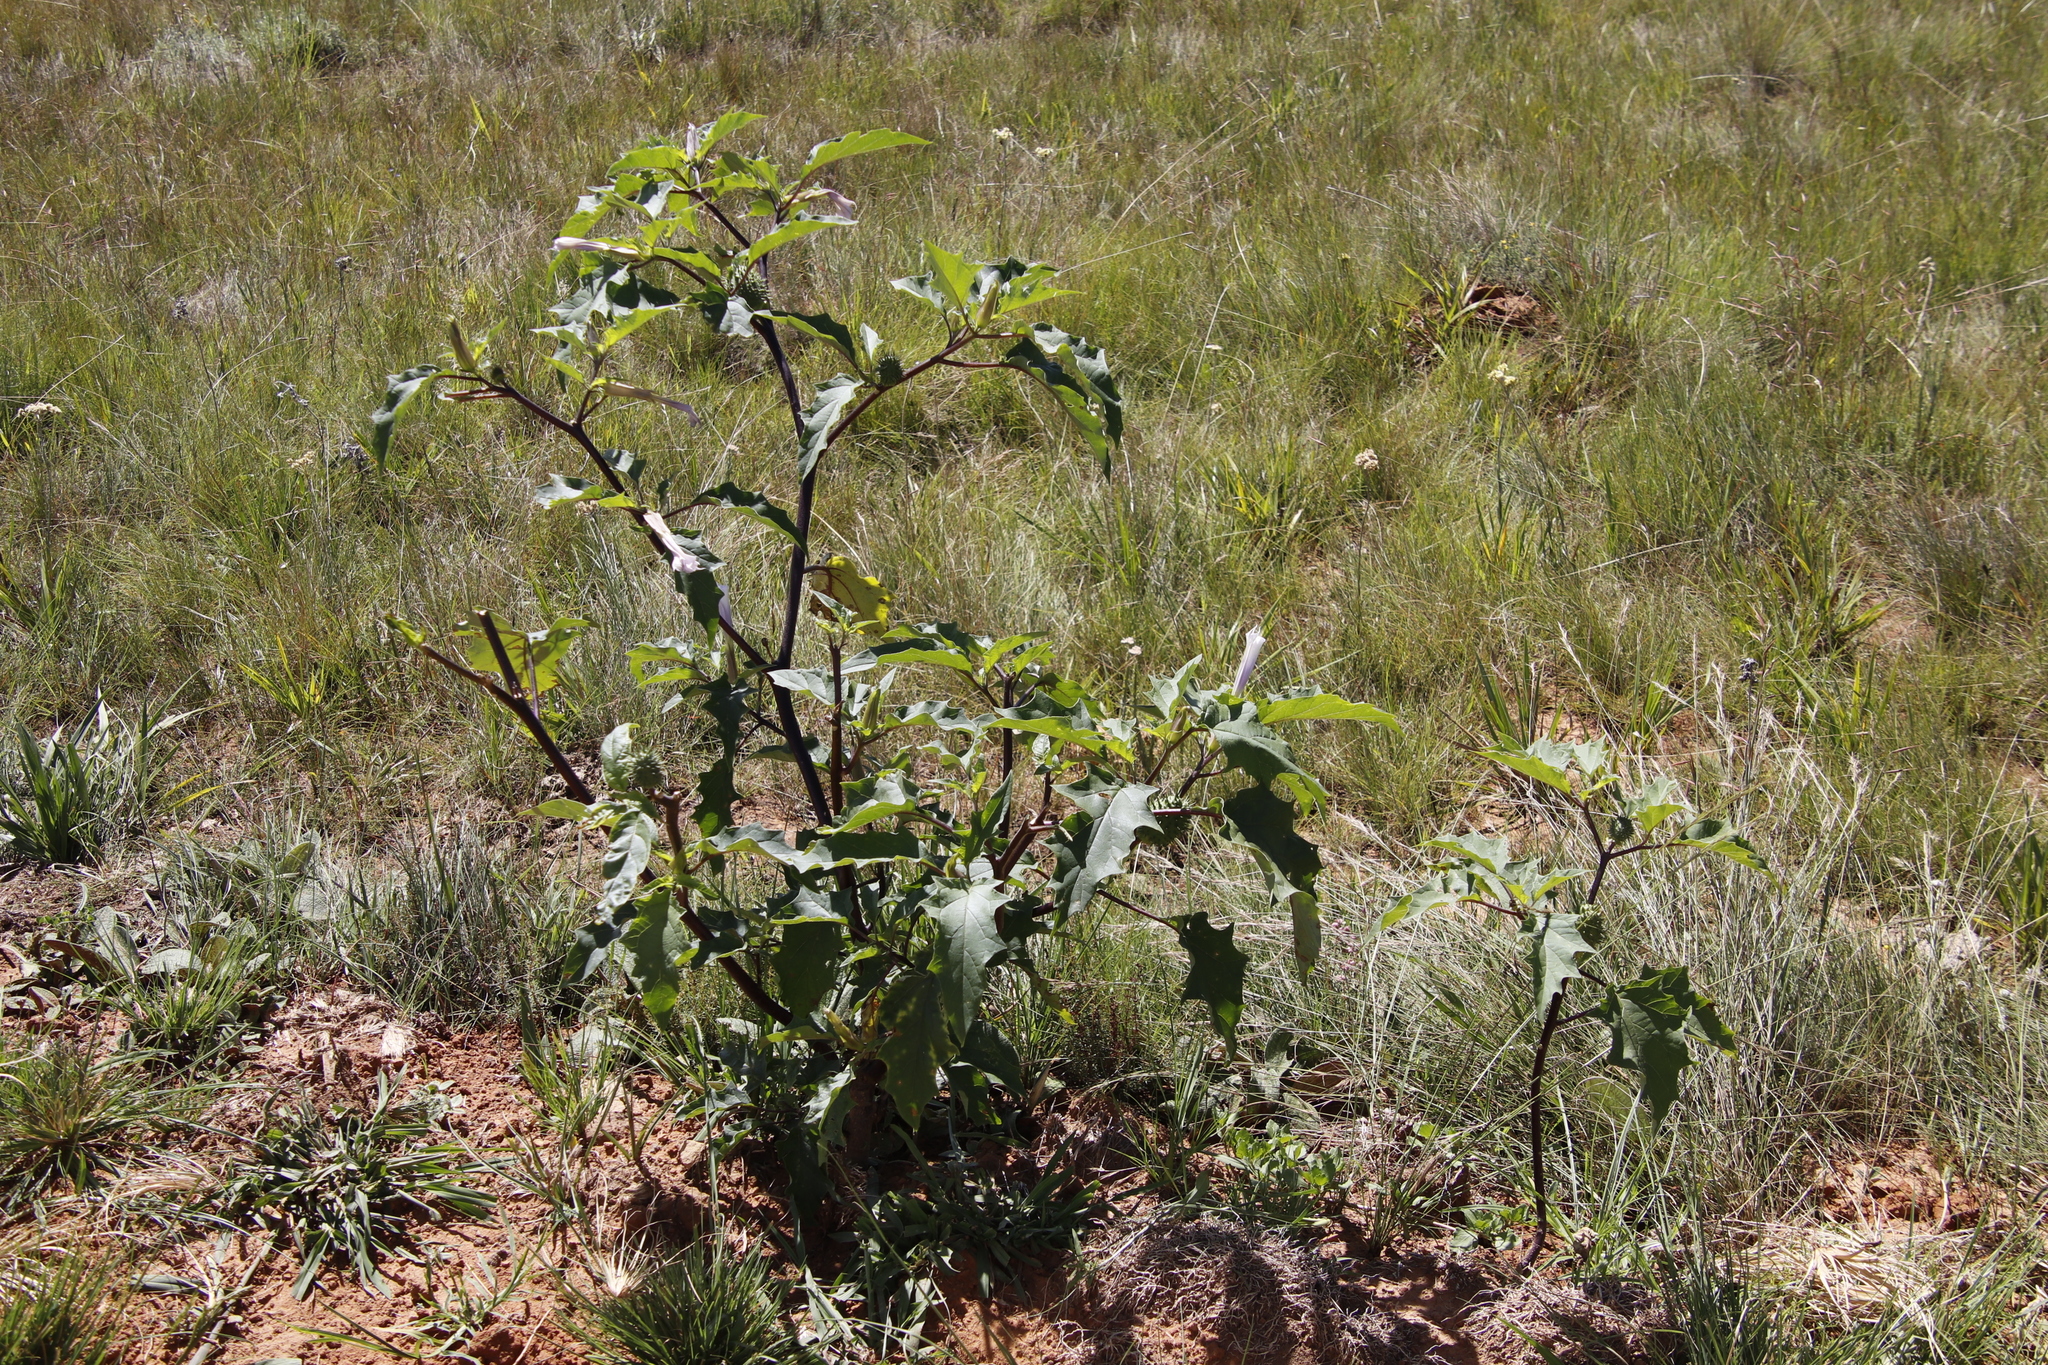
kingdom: Plantae
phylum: Tracheophyta
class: Magnoliopsida
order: Solanales
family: Solanaceae
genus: Datura
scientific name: Datura stramonium
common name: Thorn-apple
